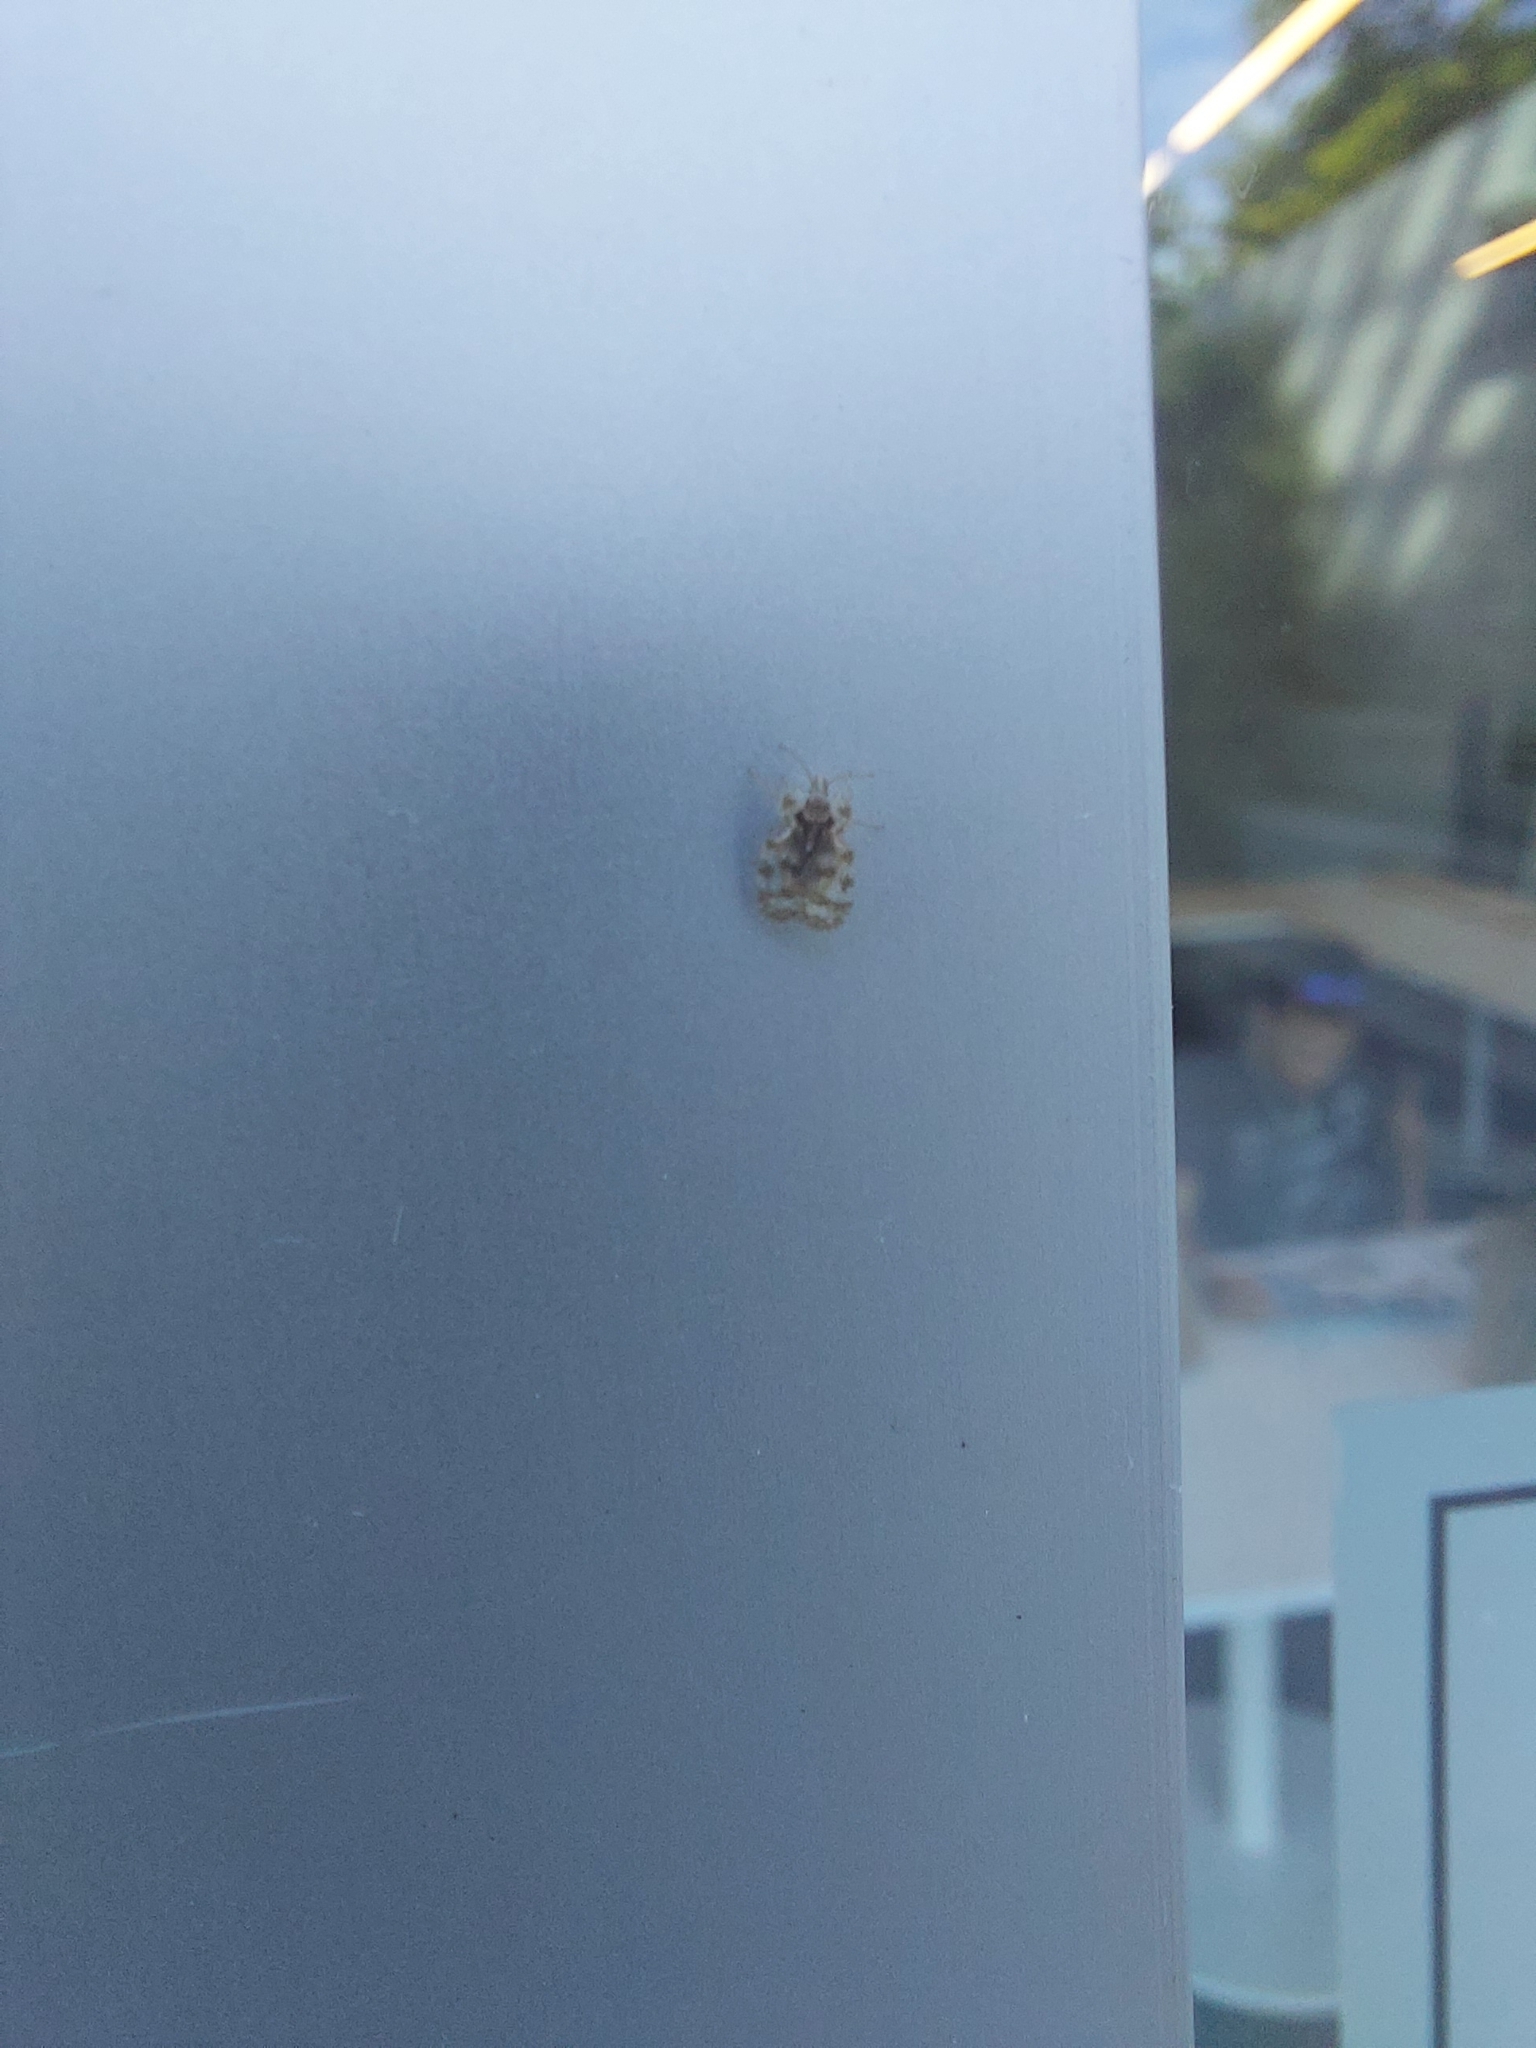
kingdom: Animalia
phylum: Arthropoda
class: Insecta
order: Hemiptera
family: Tingidae
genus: Corythucha
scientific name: Corythucha marmorata
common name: Chrysanthemum lace bug
